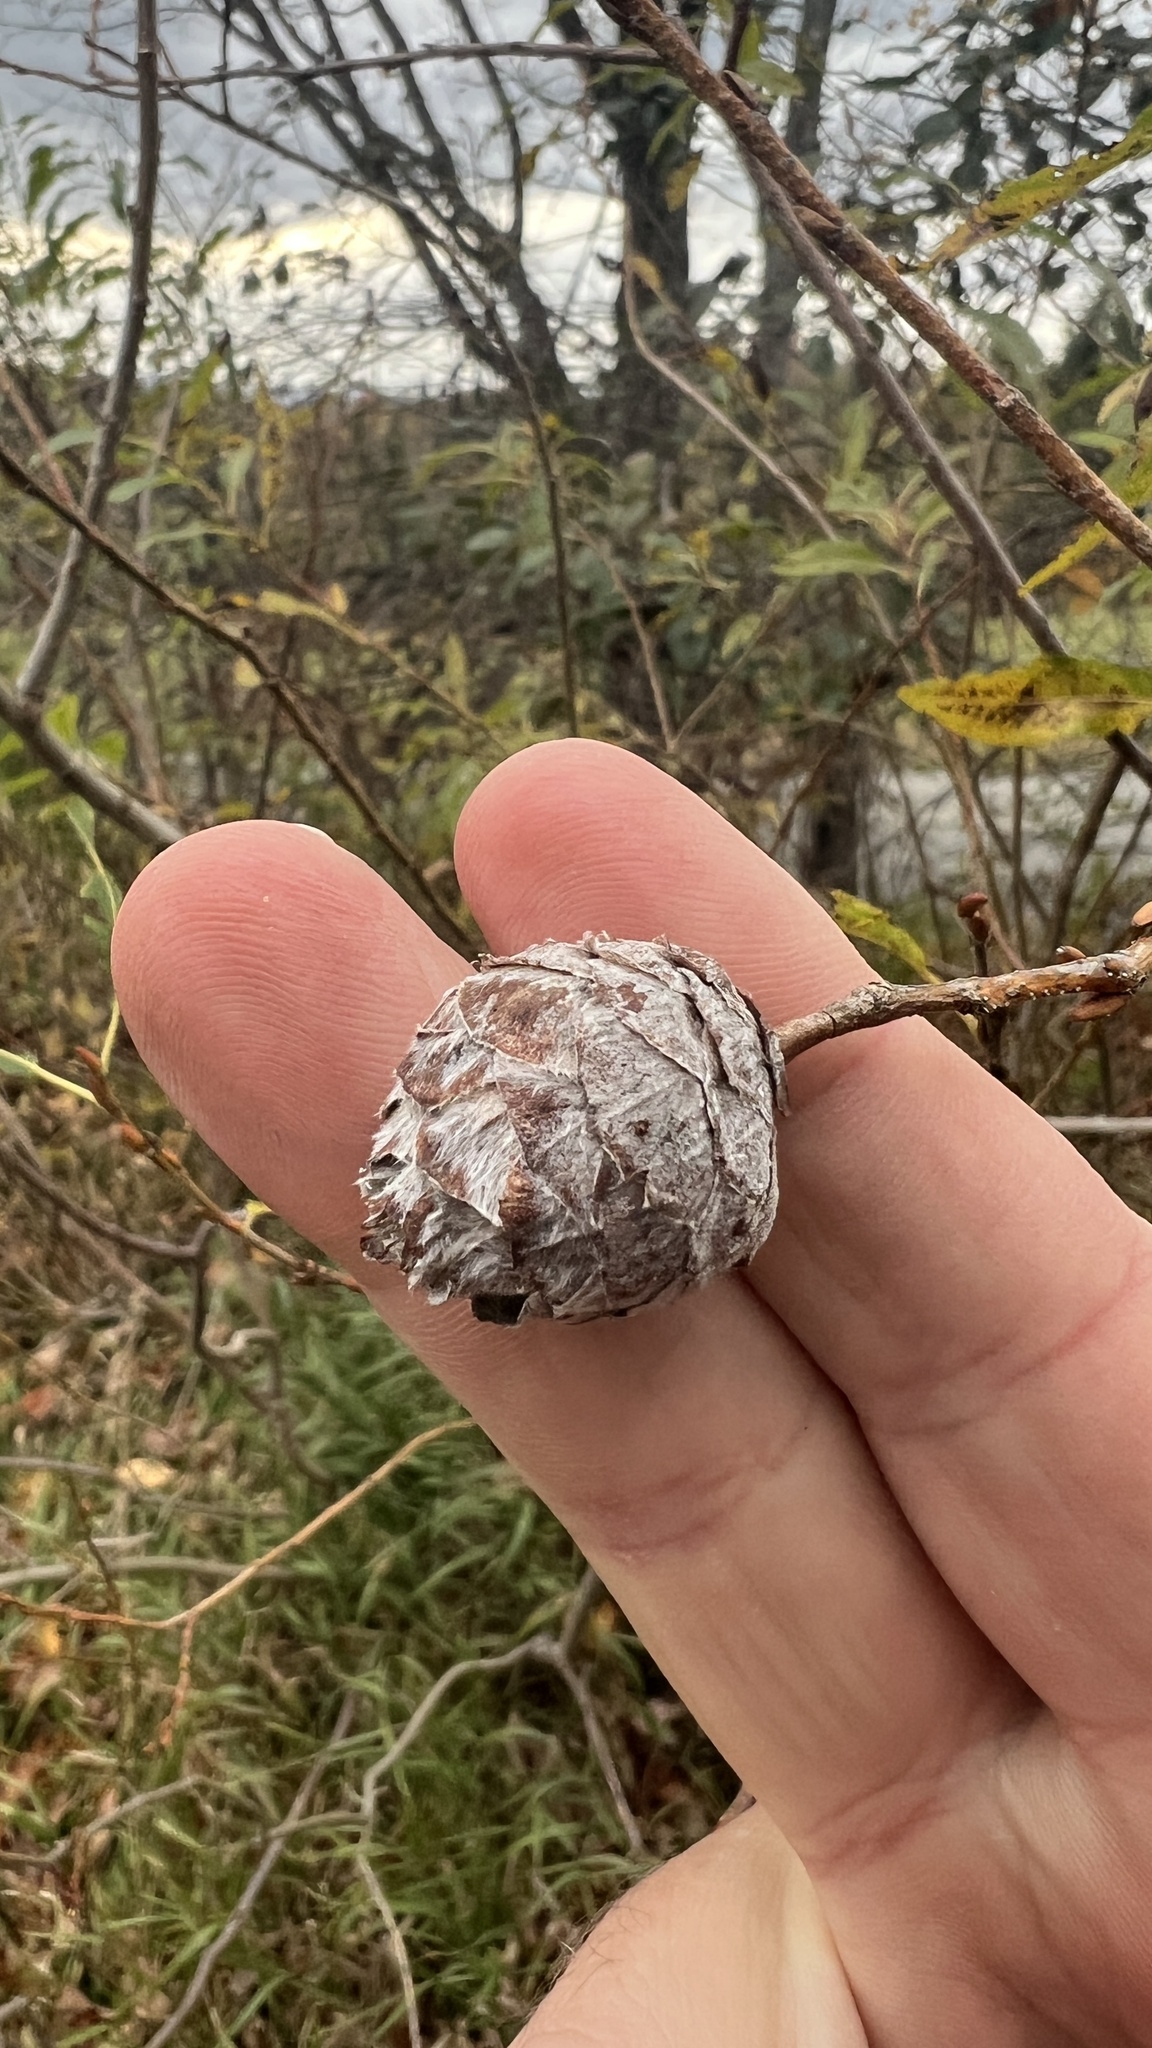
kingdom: Animalia
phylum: Arthropoda
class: Insecta
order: Diptera
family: Cecidomyiidae
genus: Rabdophaga
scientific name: Rabdophaga strobiloides
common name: Willow pinecone gall midge
